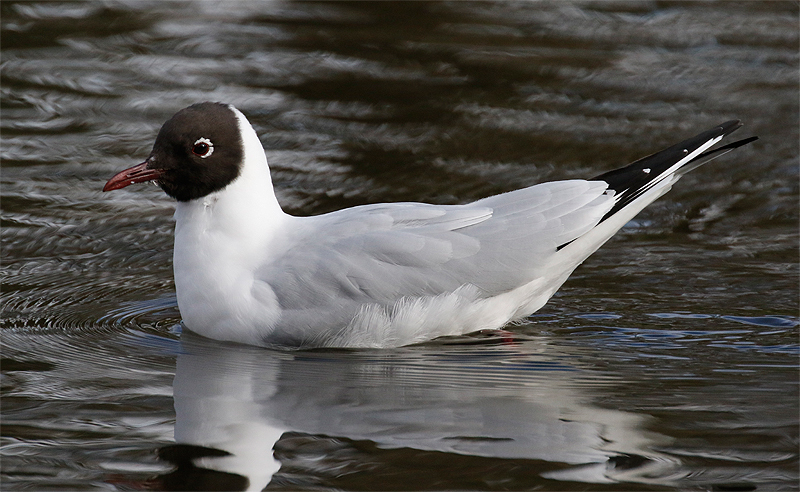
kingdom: Animalia
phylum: Chordata
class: Aves
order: Charadriiformes
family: Laridae
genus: Chroicocephalus
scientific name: Chroicocephalus ridibundus
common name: Black-headed gull
